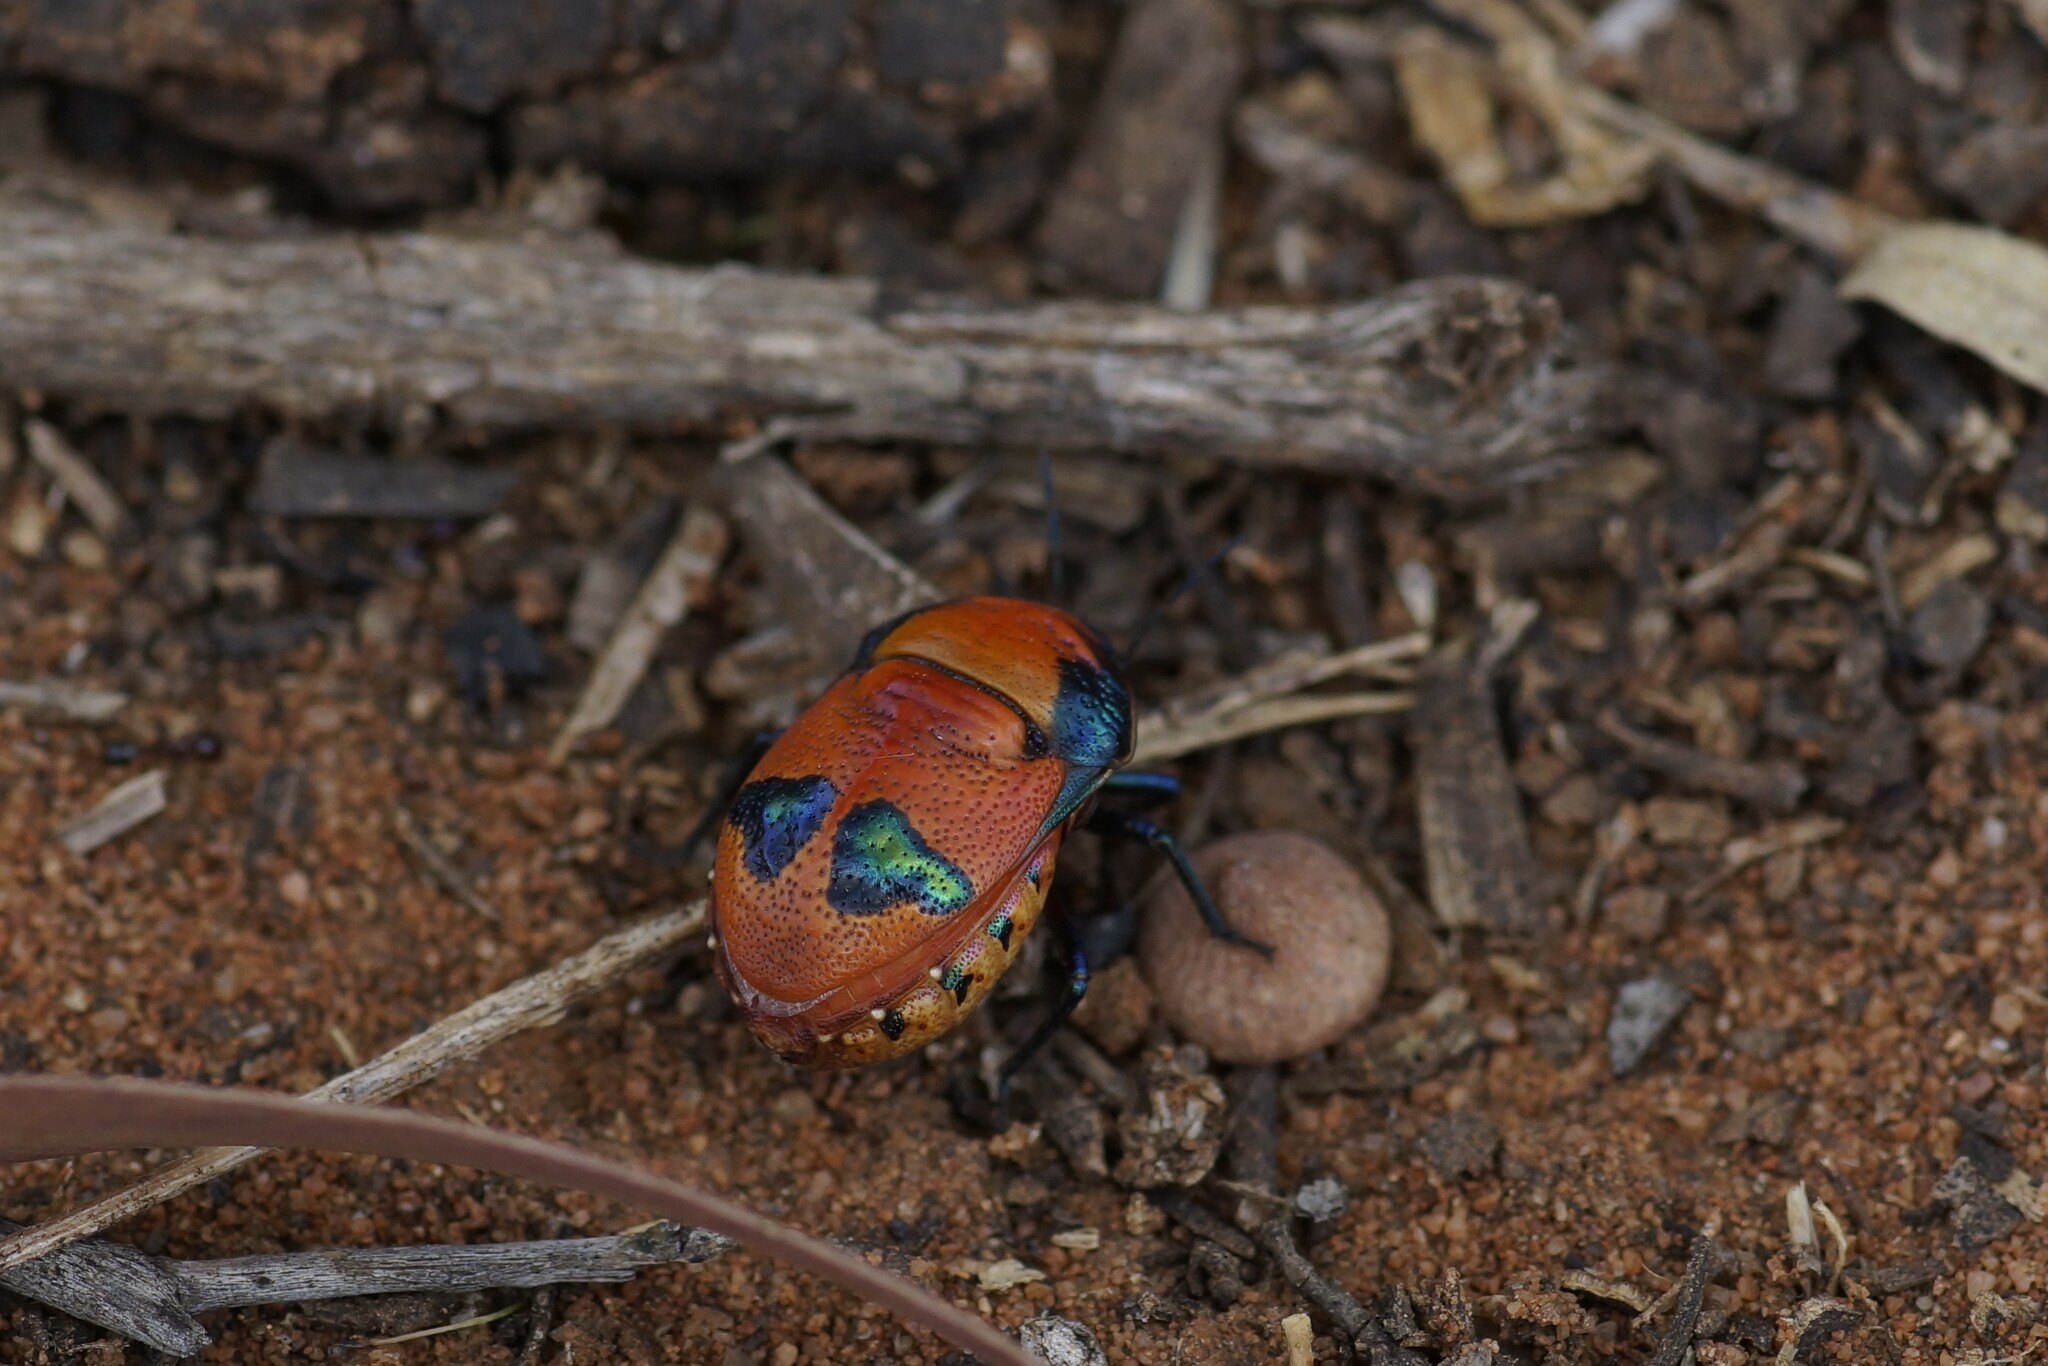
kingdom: Animalia
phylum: Arthropoda
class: Insecta
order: Hemiptera
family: Scutelleridae
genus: Choerocoris
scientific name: Choerocoris paganus
